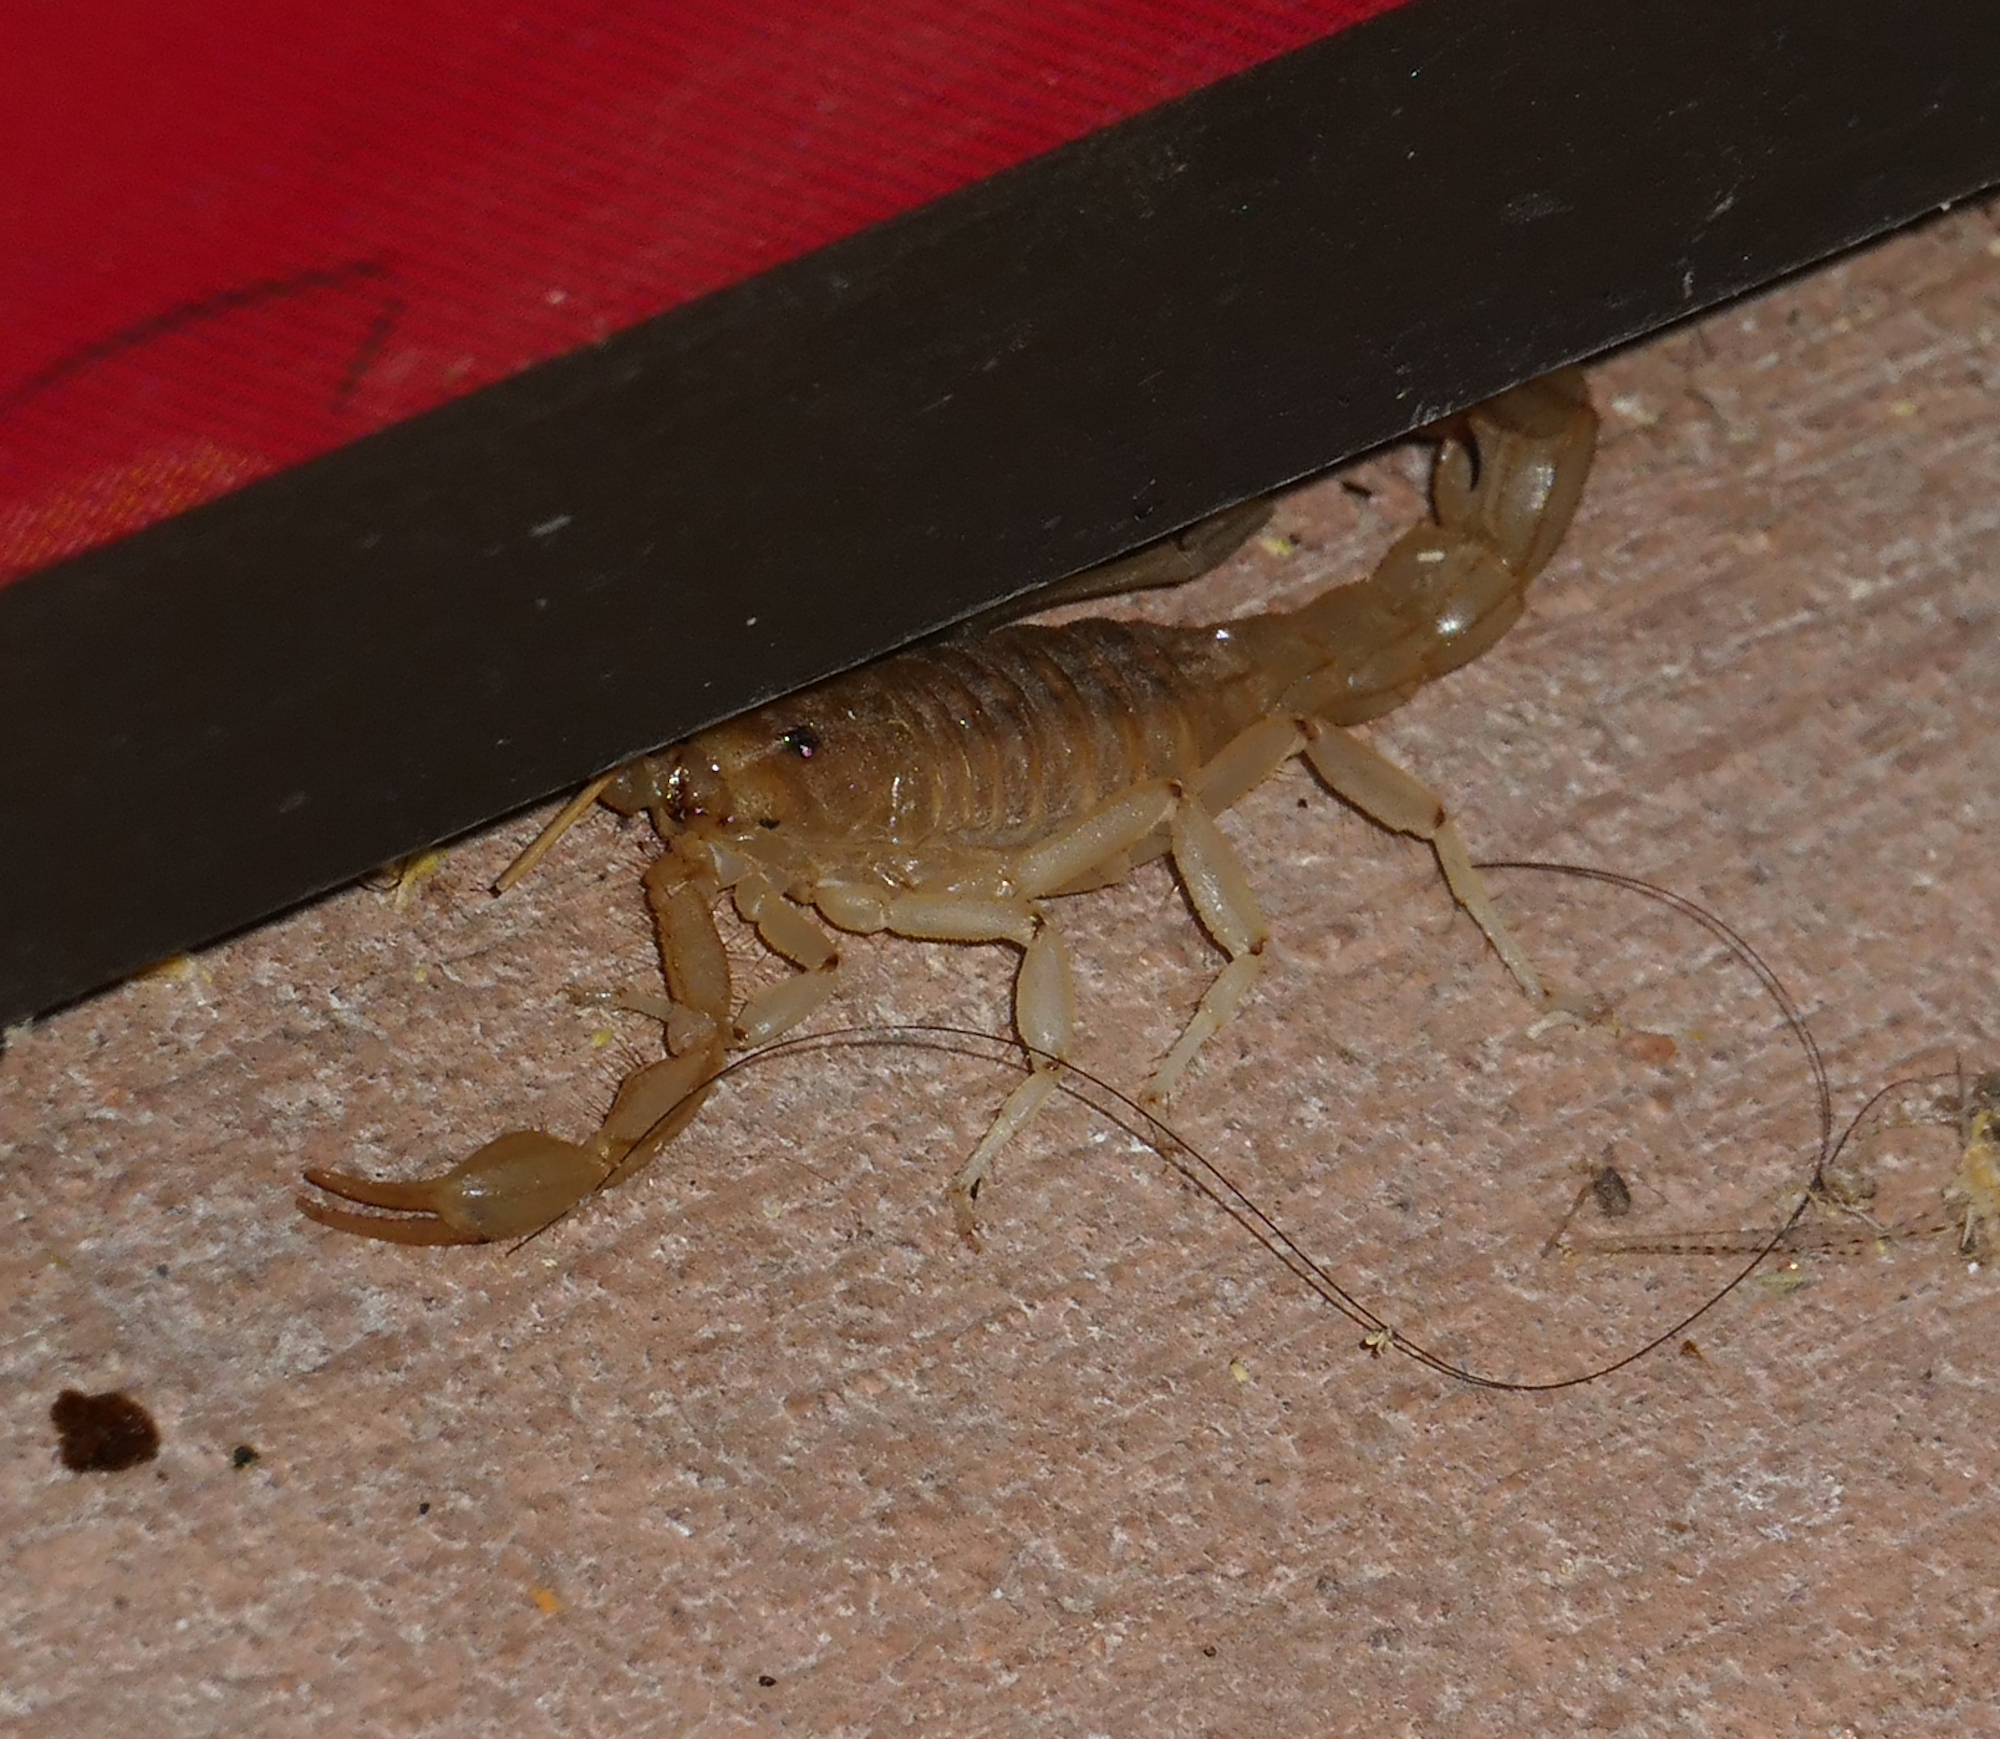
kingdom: Animalia
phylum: Arthropoda
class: Arachnida
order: Scorpiones
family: Vaejovidae
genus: Paravaejovis
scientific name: Paravaejovis spinigerus
